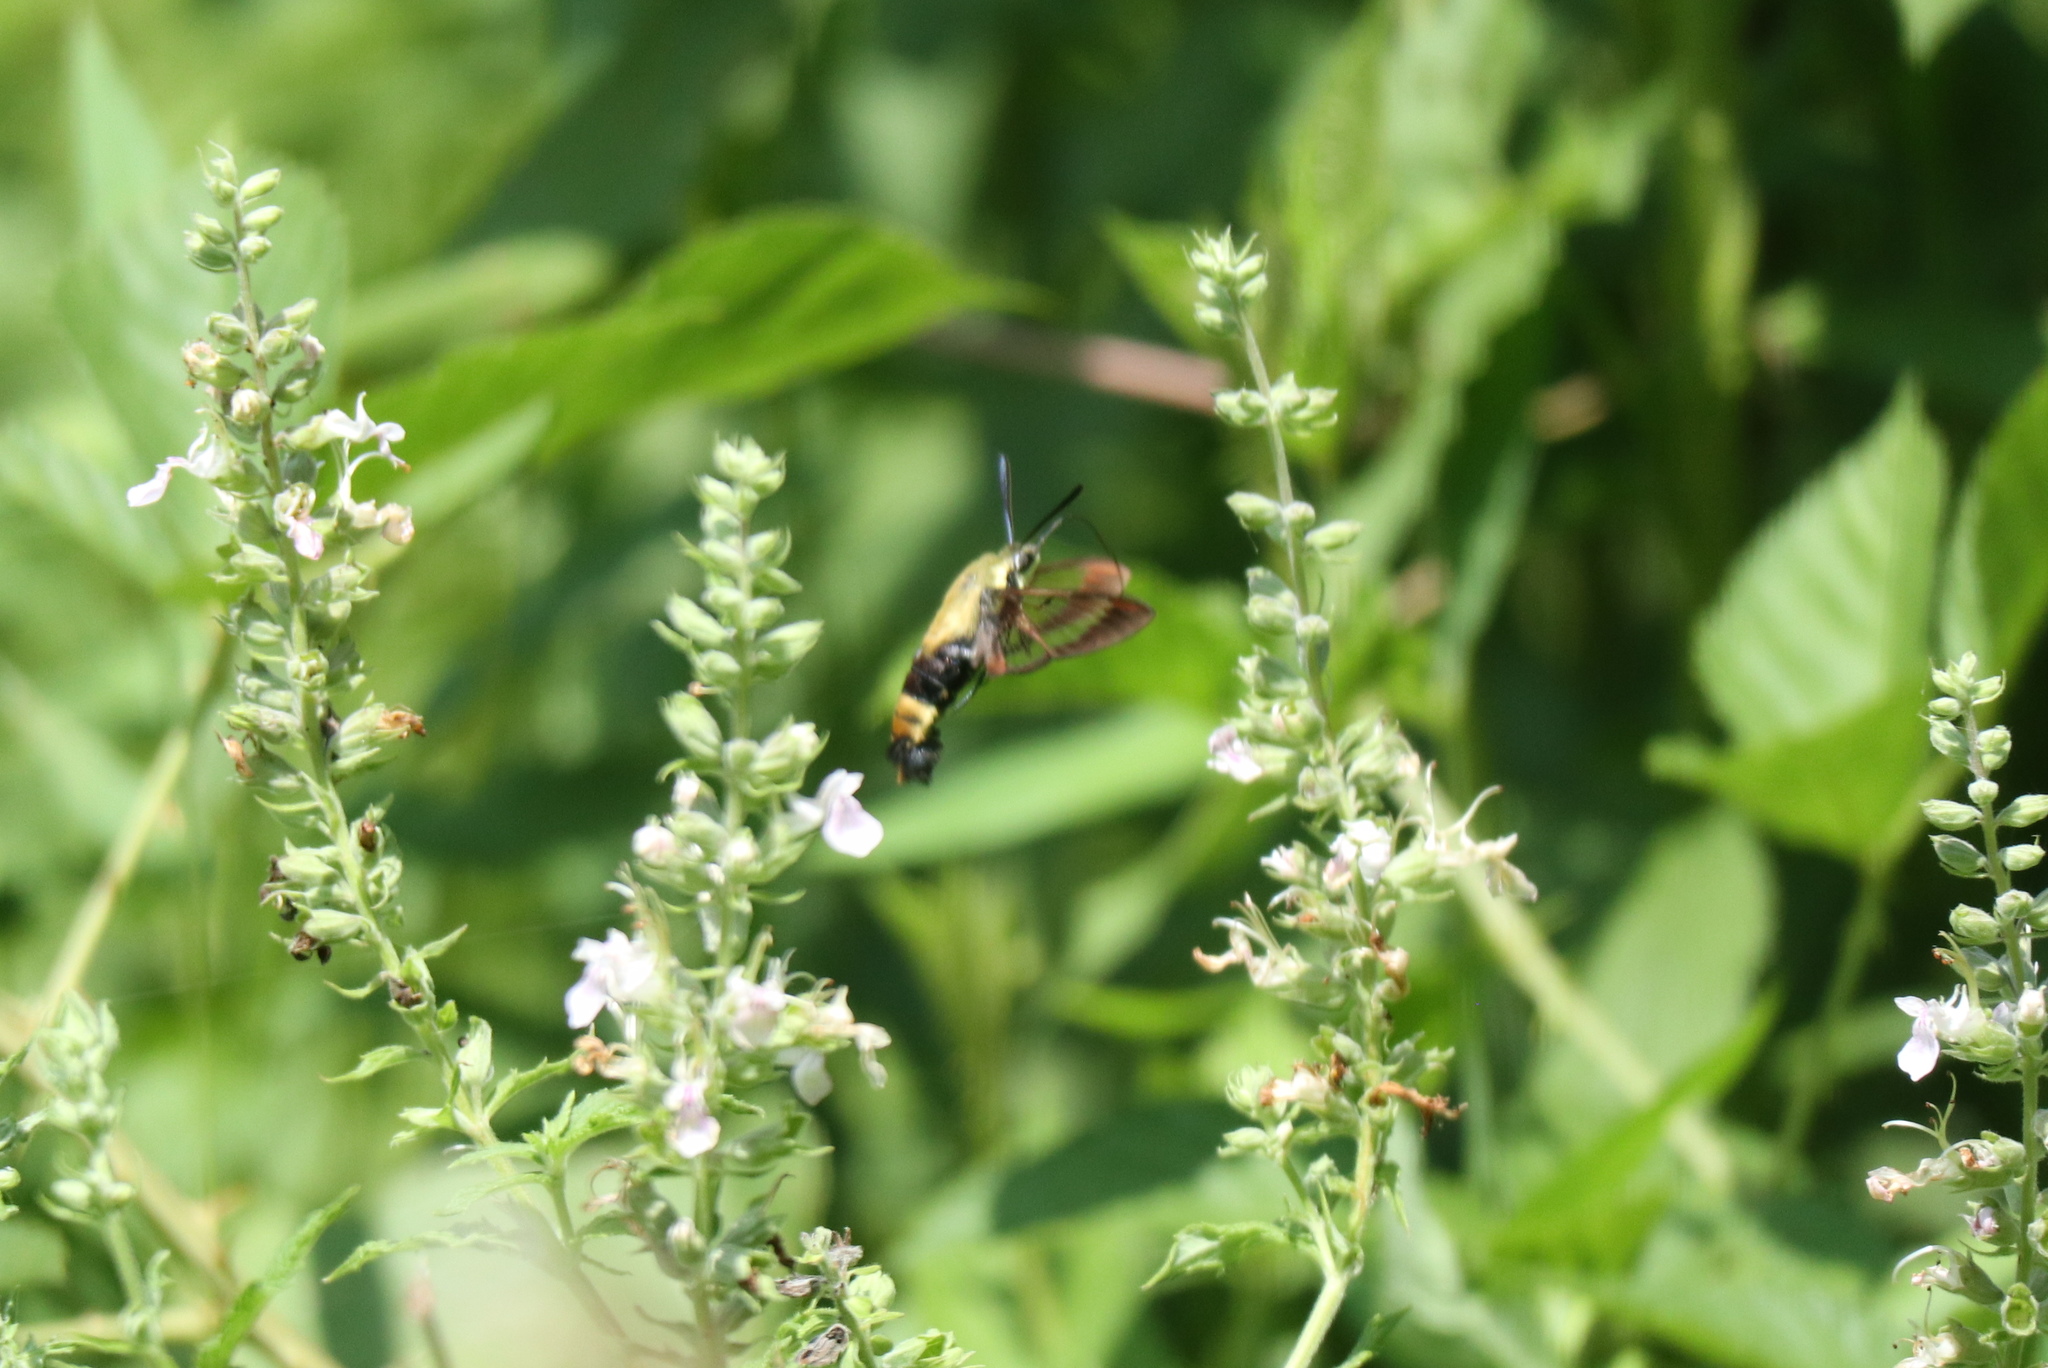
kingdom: Animalia
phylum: Arthropoda
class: Insecta
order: Lepidoptera
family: Sphingidae
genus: Hemaris
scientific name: Hemaris diffinis
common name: Bumblebee moth
